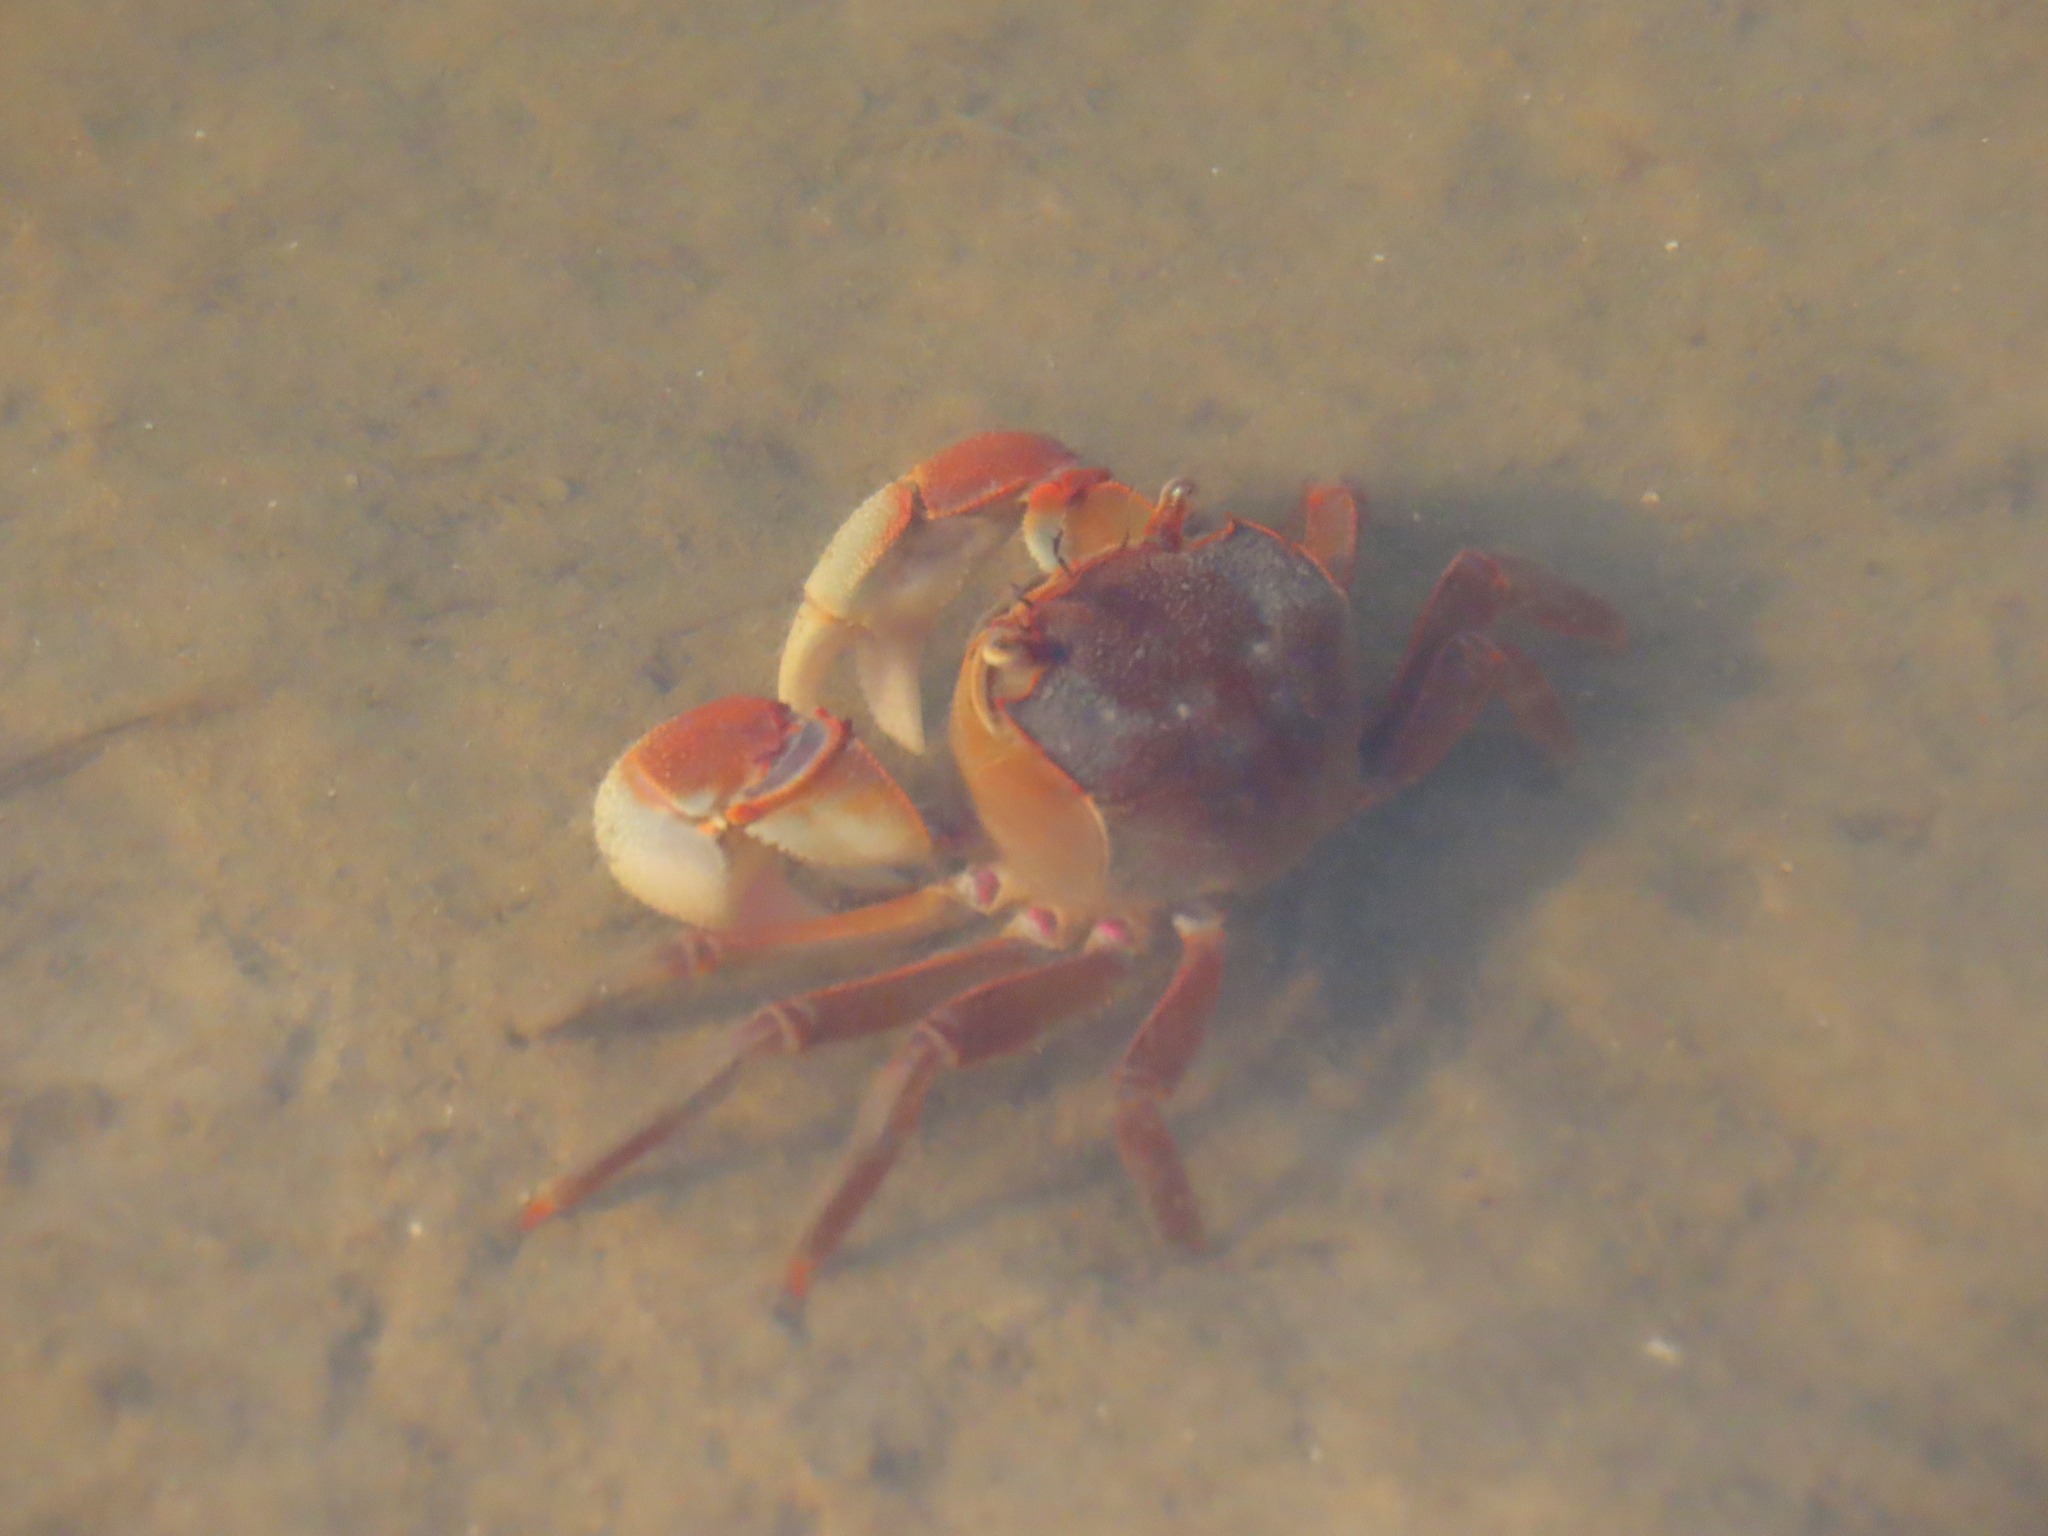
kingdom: Animalia
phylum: Arthropoda
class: Malacostraca
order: Decapoda
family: Varunidae
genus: Neohelice
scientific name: Neohelice granulata
